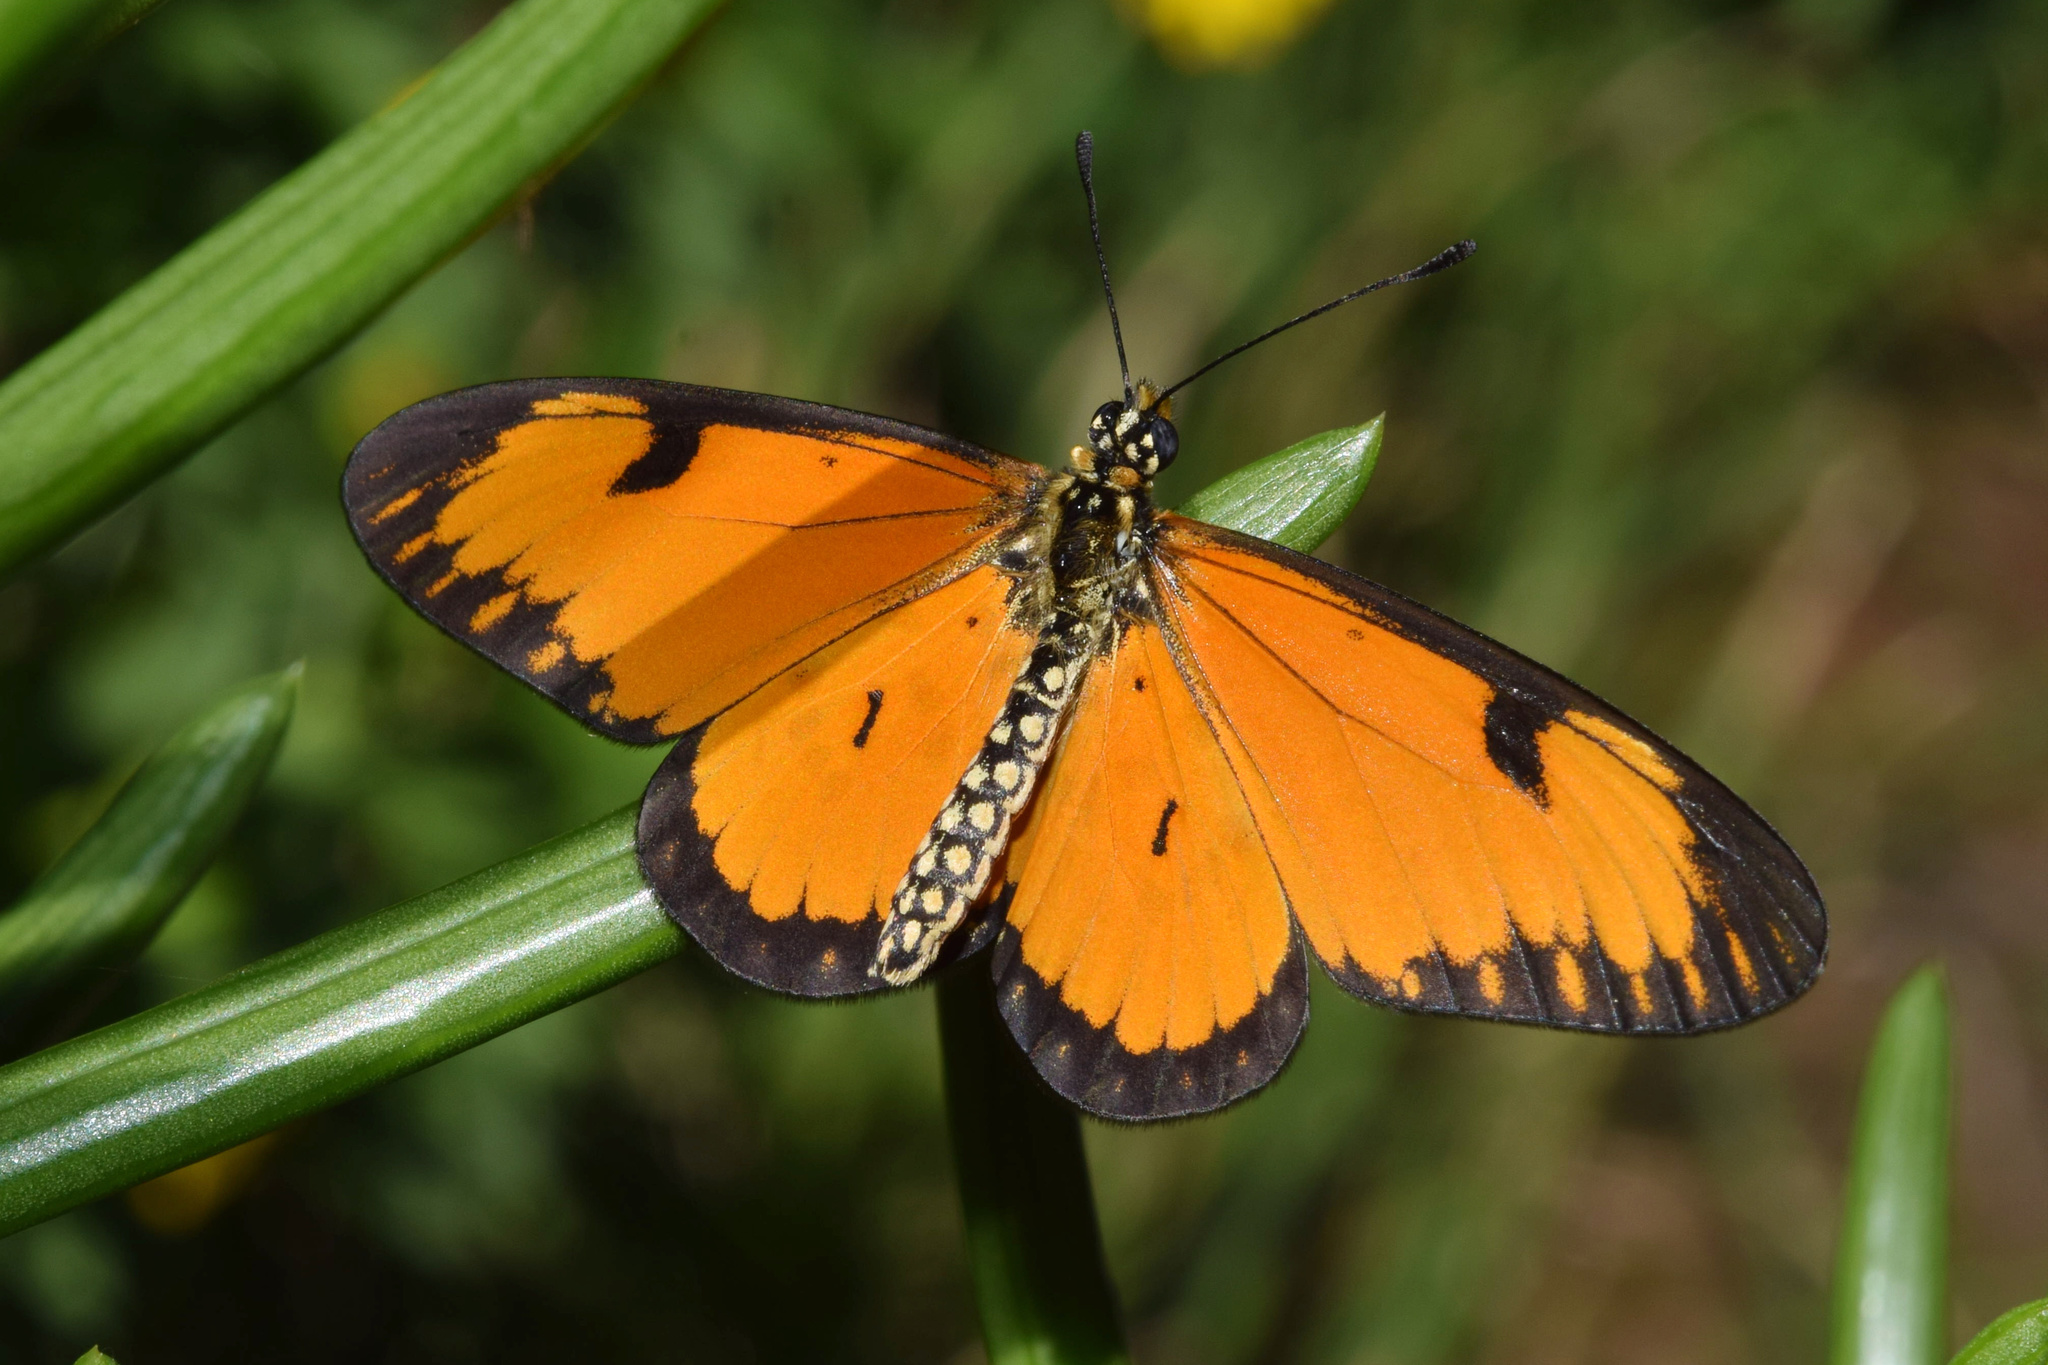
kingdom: Animalia
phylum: Arthropoda
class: Insecta
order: Lepidoptera
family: Nymphalidae
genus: Acraea
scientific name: Acraea Telchinia serena
